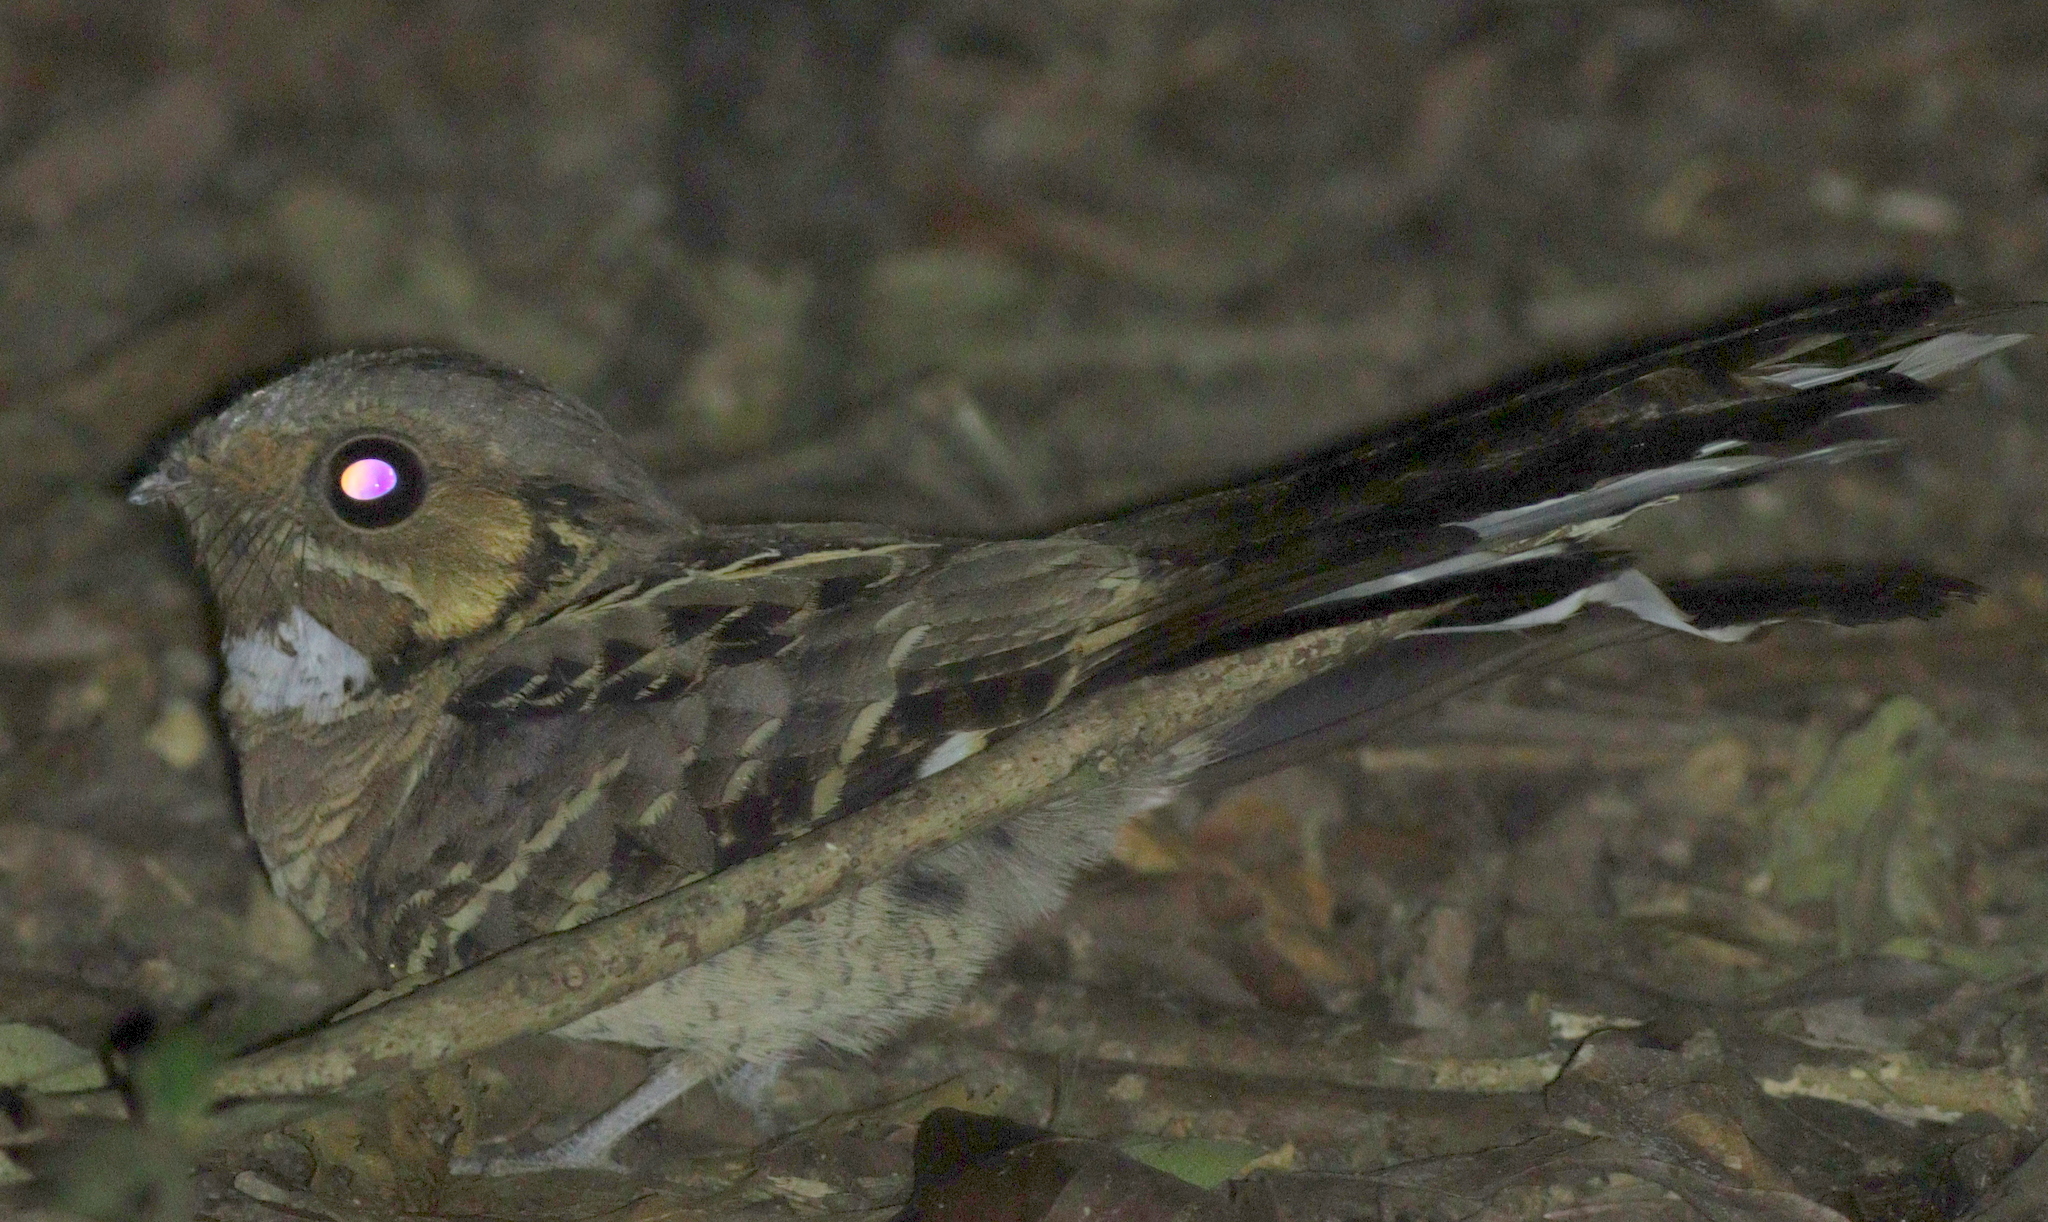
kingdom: Animalia
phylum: Chordata
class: Aves
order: Caprimulgiformes
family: Caprimulgidae
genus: Nyctidromus
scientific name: Nyctidromus albicollis
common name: Pauraque
